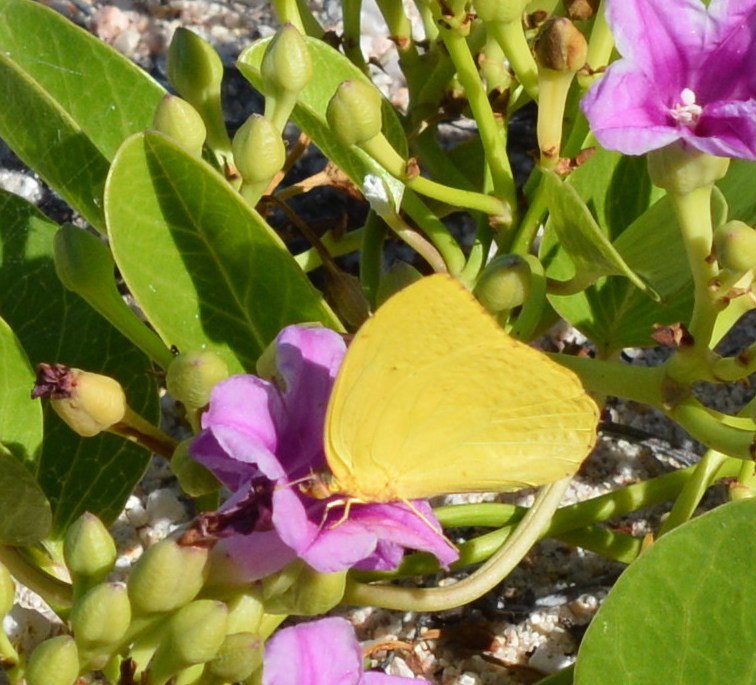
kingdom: Animalia
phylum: Arthropoda
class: Insecta
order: Lepidoptera
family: Pieridae
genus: Phoebis
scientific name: Phoebis agarithe
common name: Large orange sulphur
